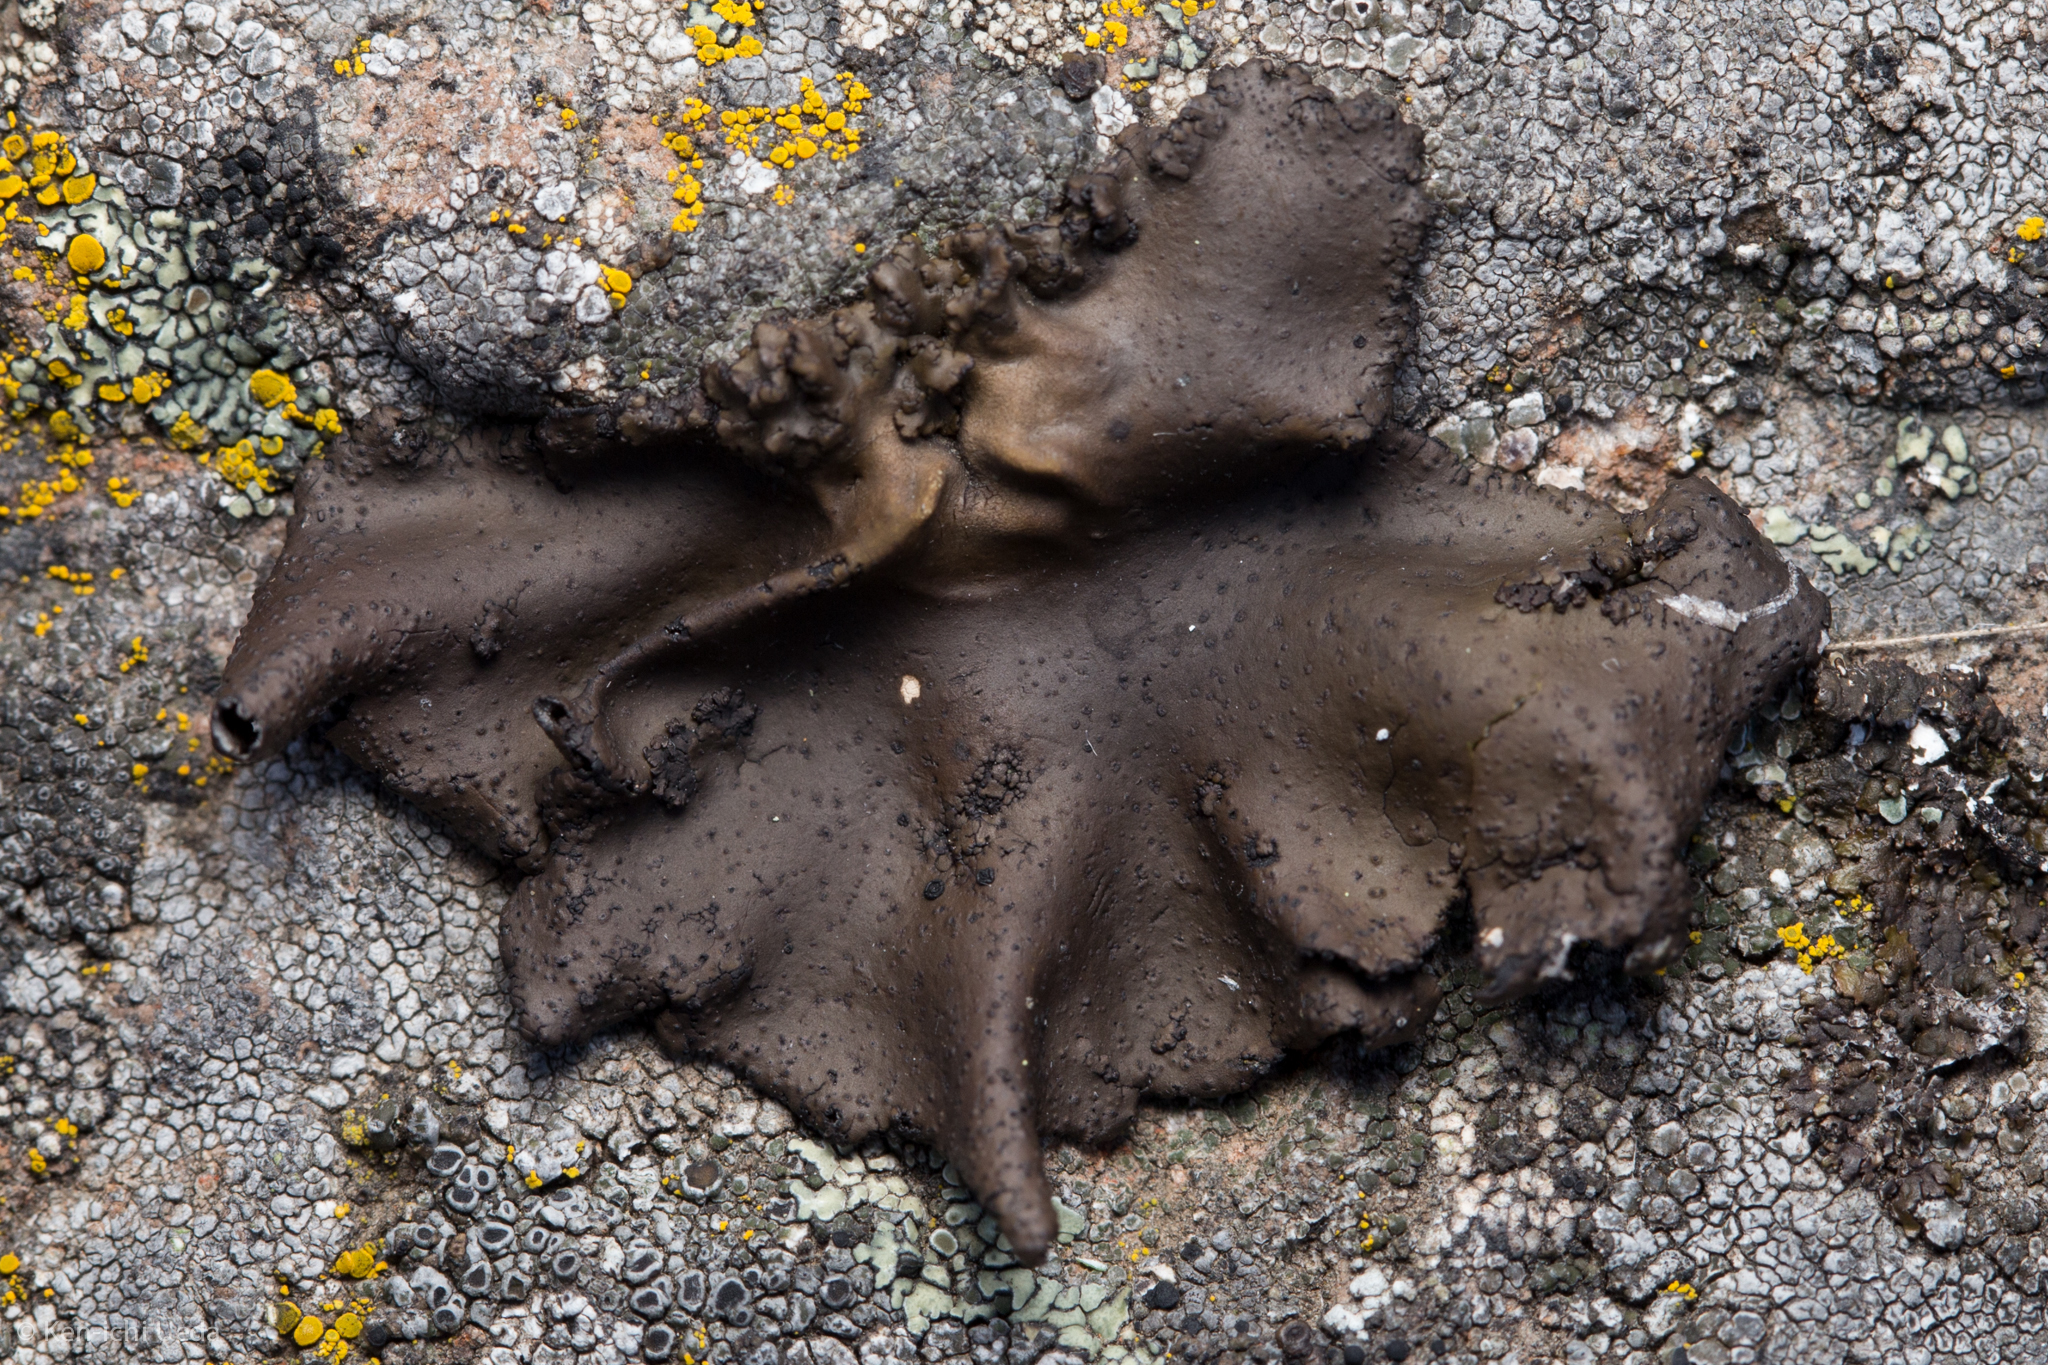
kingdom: Fungi
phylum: Ascomycota
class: Lecanoromycetes
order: Umbilicariales
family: Umbilicariaceae
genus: Umbilicaria
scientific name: Umbilicaria phaea
